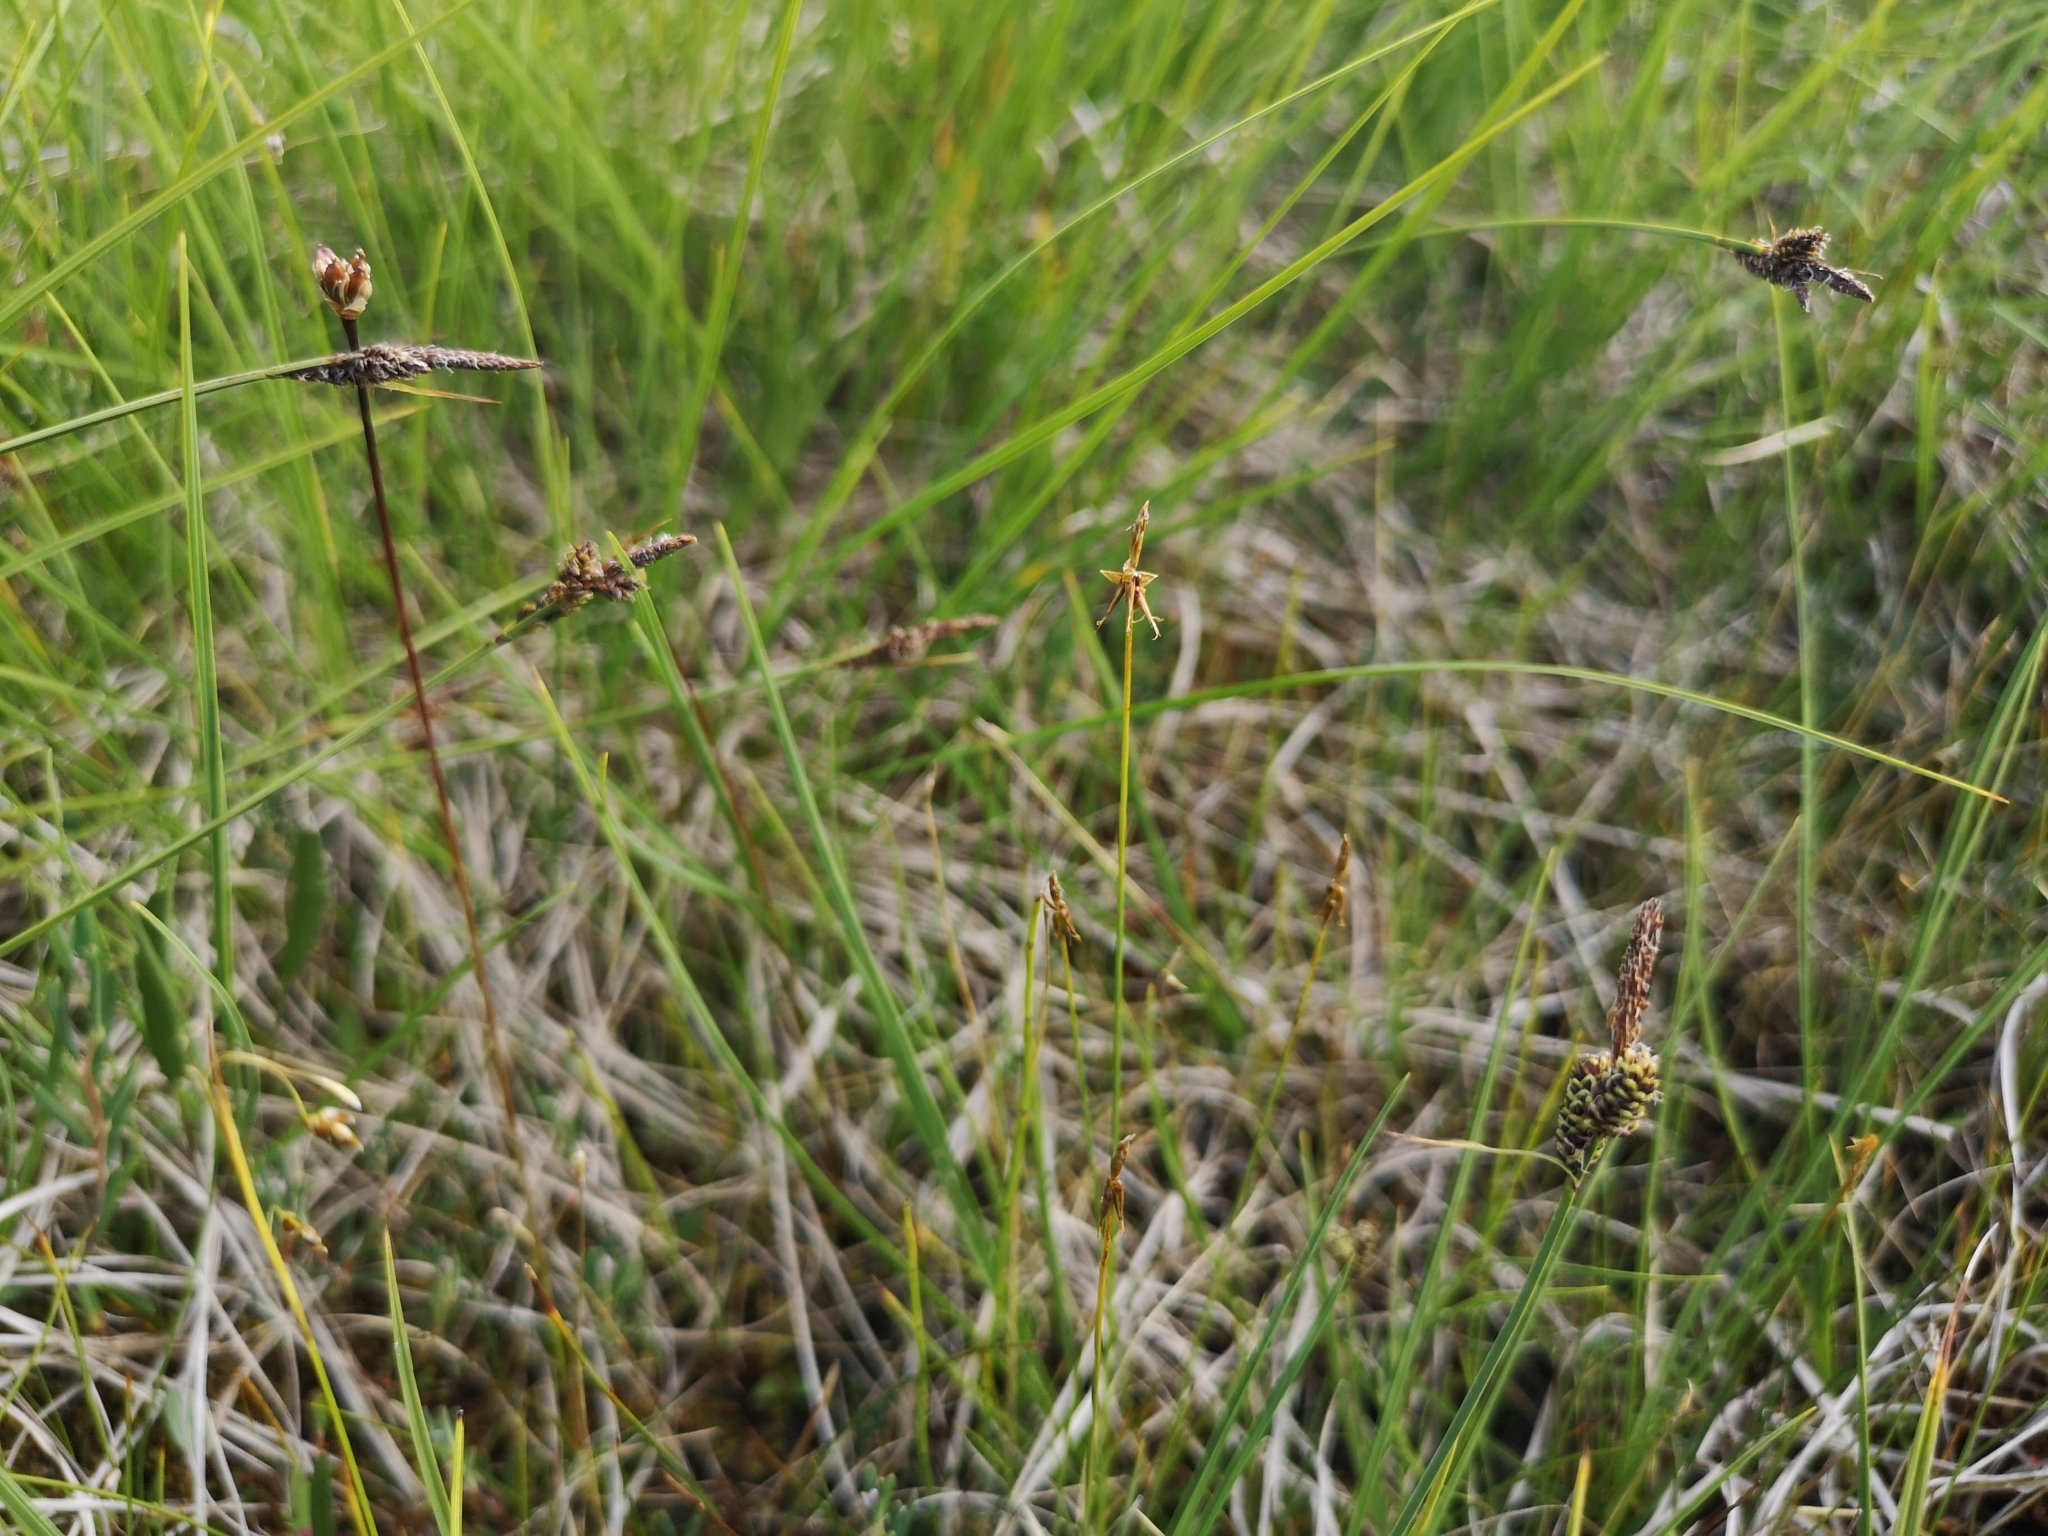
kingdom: Plantae
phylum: Tracheophyta
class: Liliopsida
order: Poales
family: Cyperaceae
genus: Carex
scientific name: Carex pauciflora
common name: Few-flowered sedge
